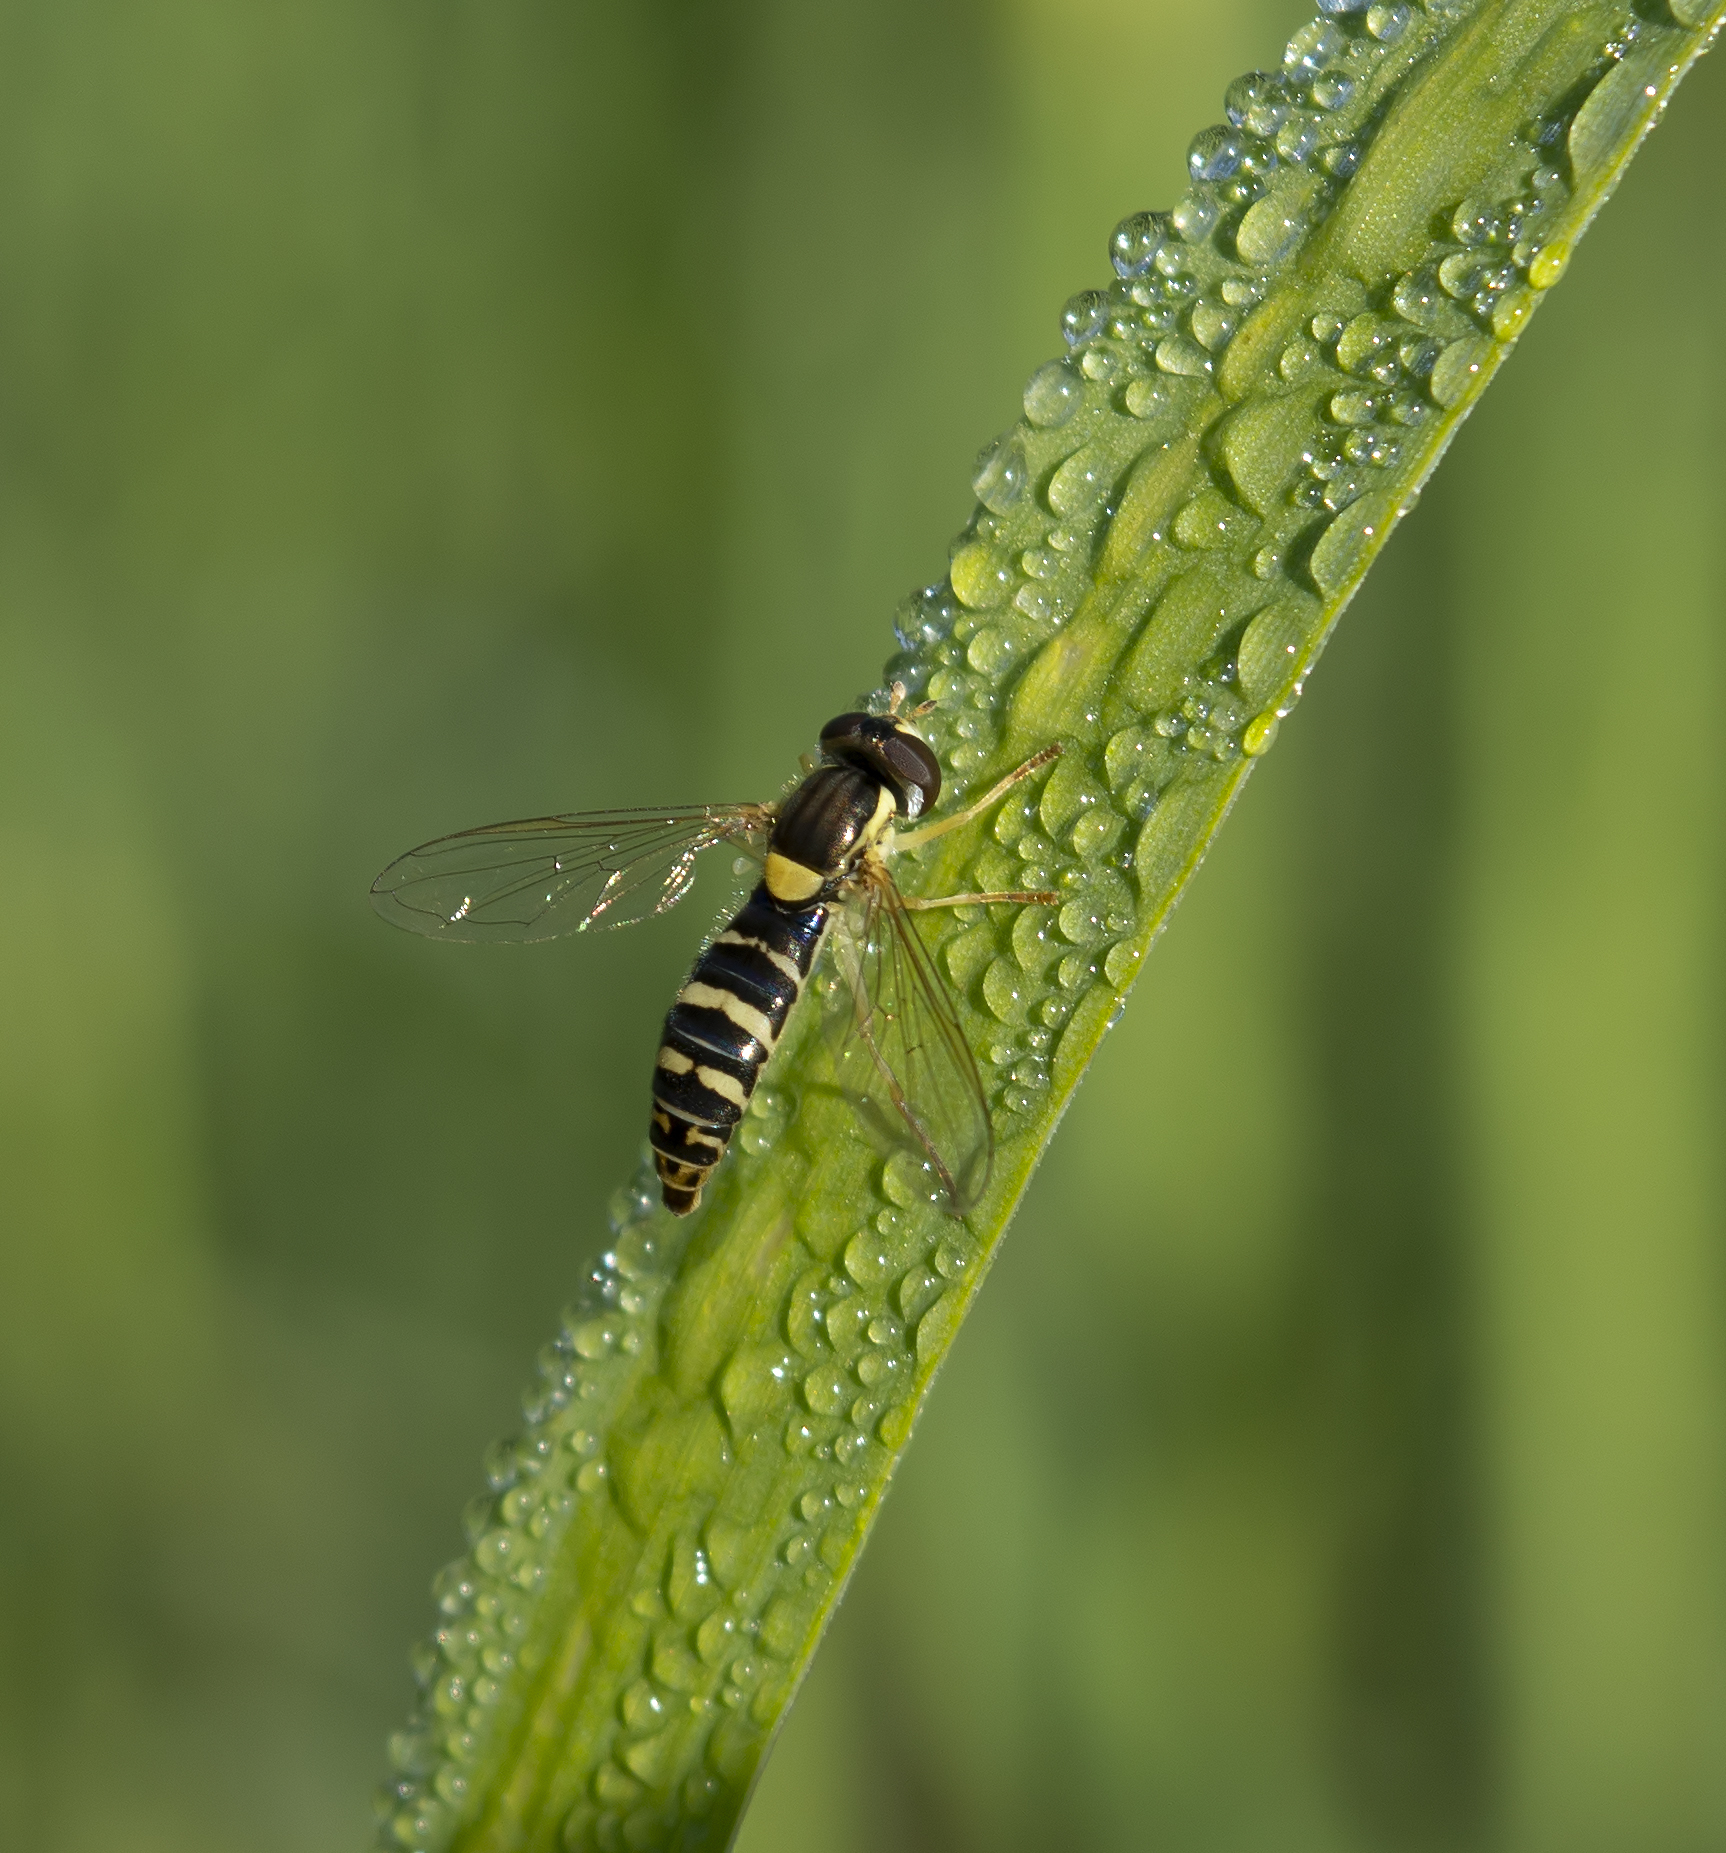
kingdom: Animalia
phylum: Arthropoda
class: Insecta
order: Diptera
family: Syrphidae
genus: Sphaerophoria
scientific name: Sphaerophoria scripta
